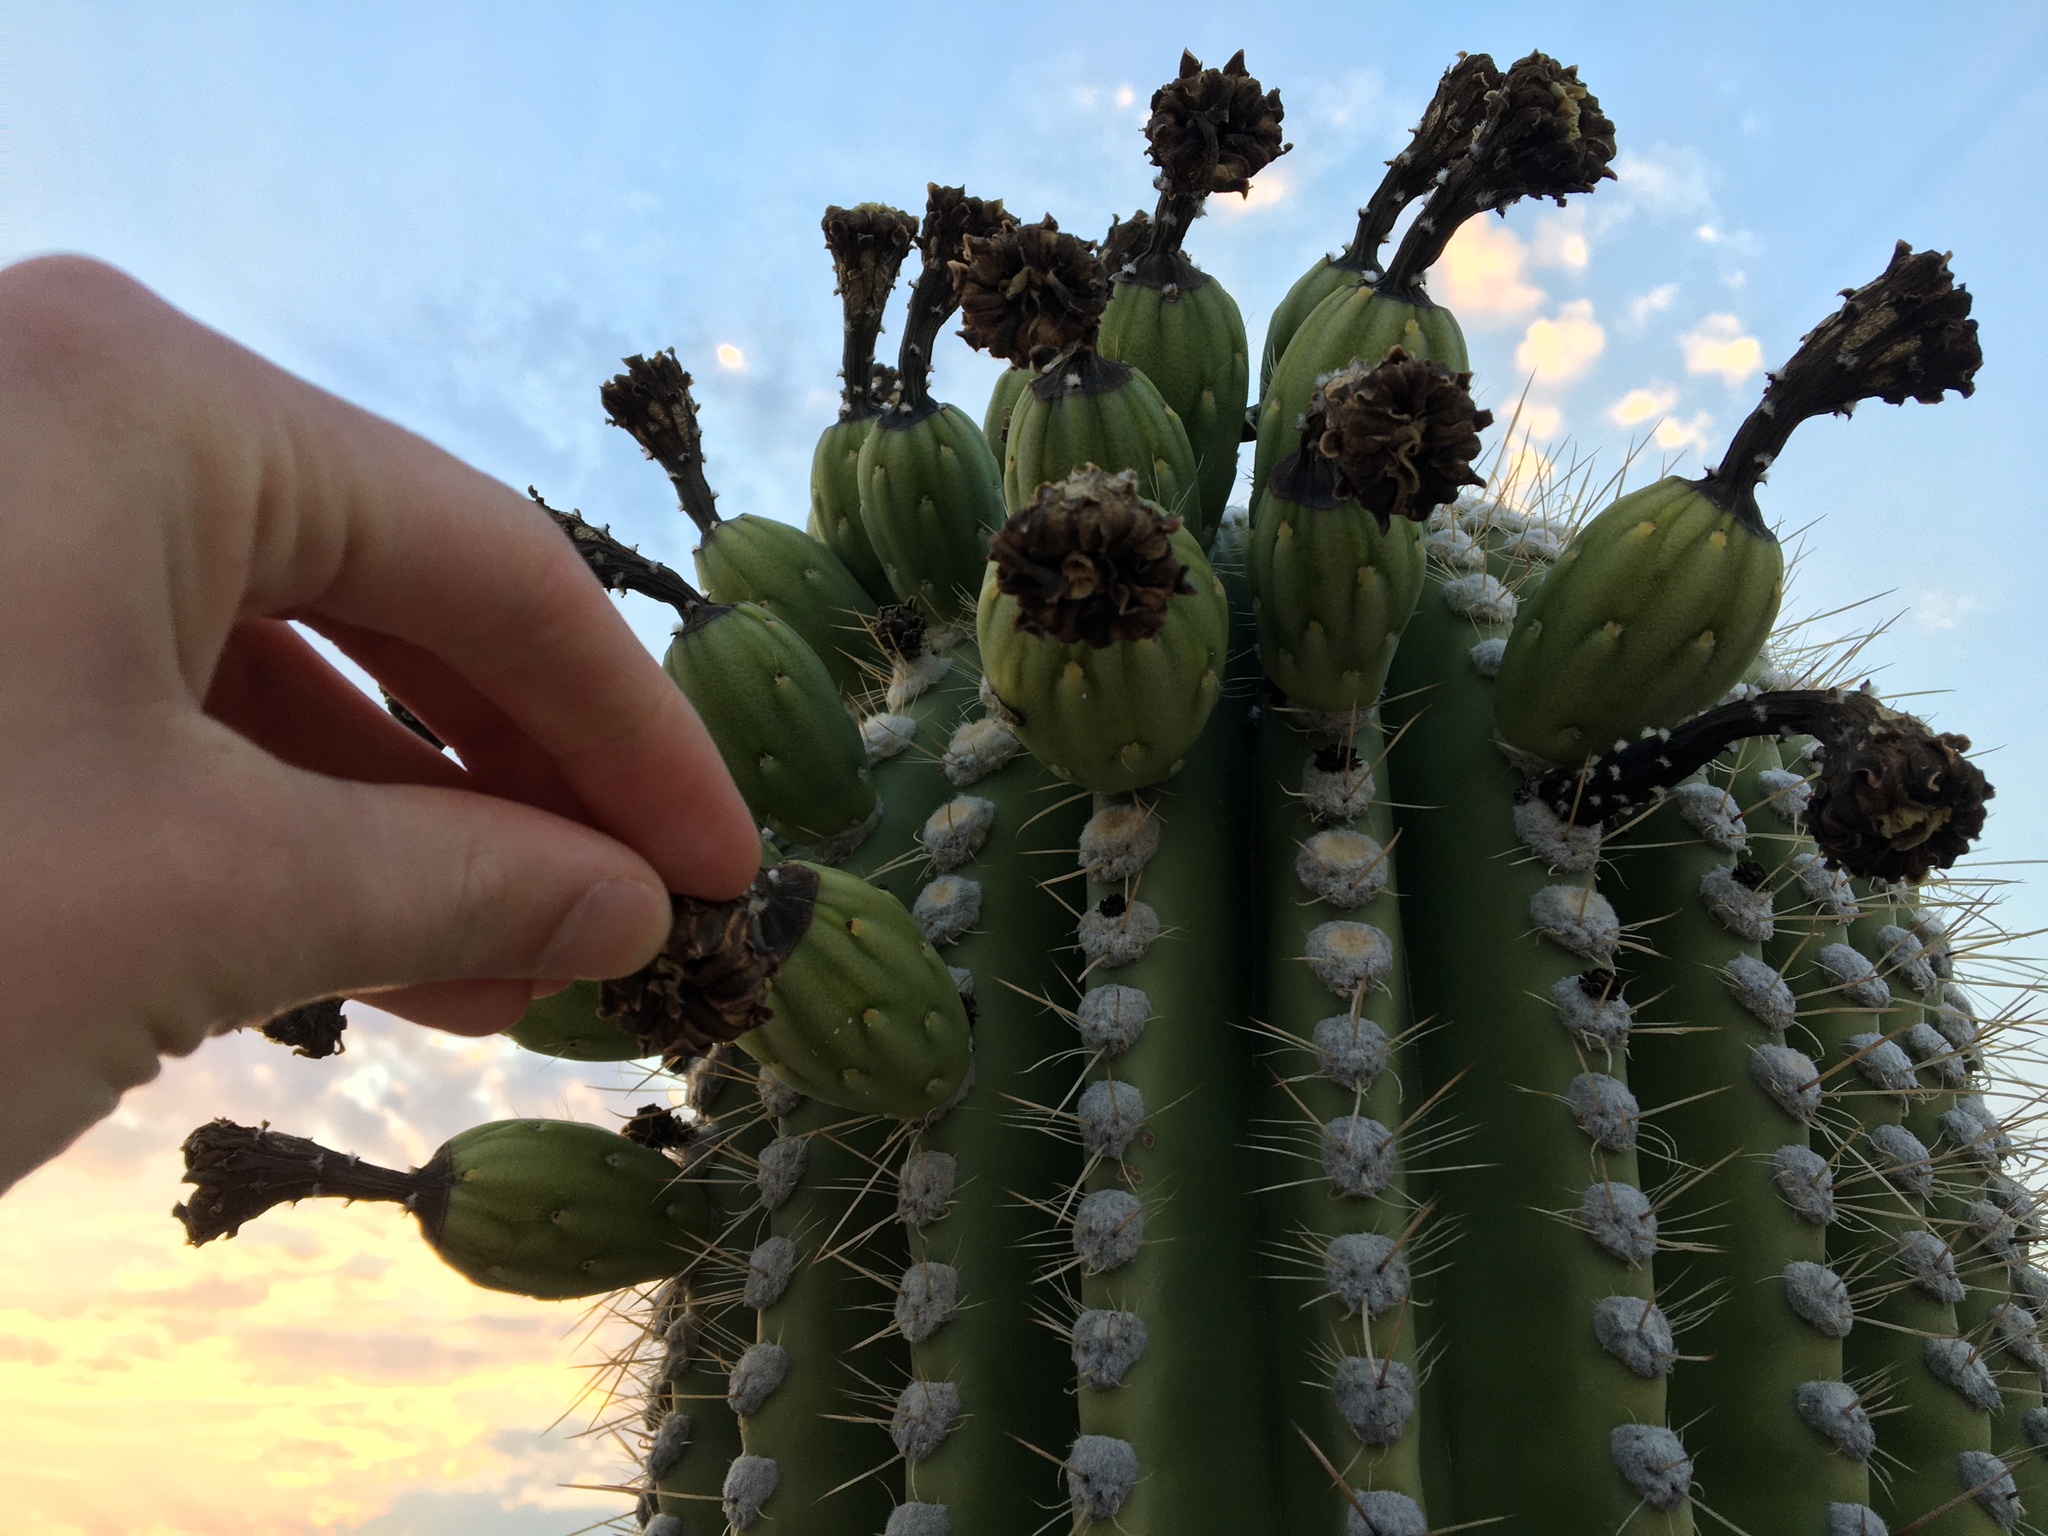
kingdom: Plantae
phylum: Tracheophyta
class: Magnoliopsida
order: Caryophyllales
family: Cactaceae
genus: Carnegiea
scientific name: Carnegiea gigantea
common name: Saguaro
